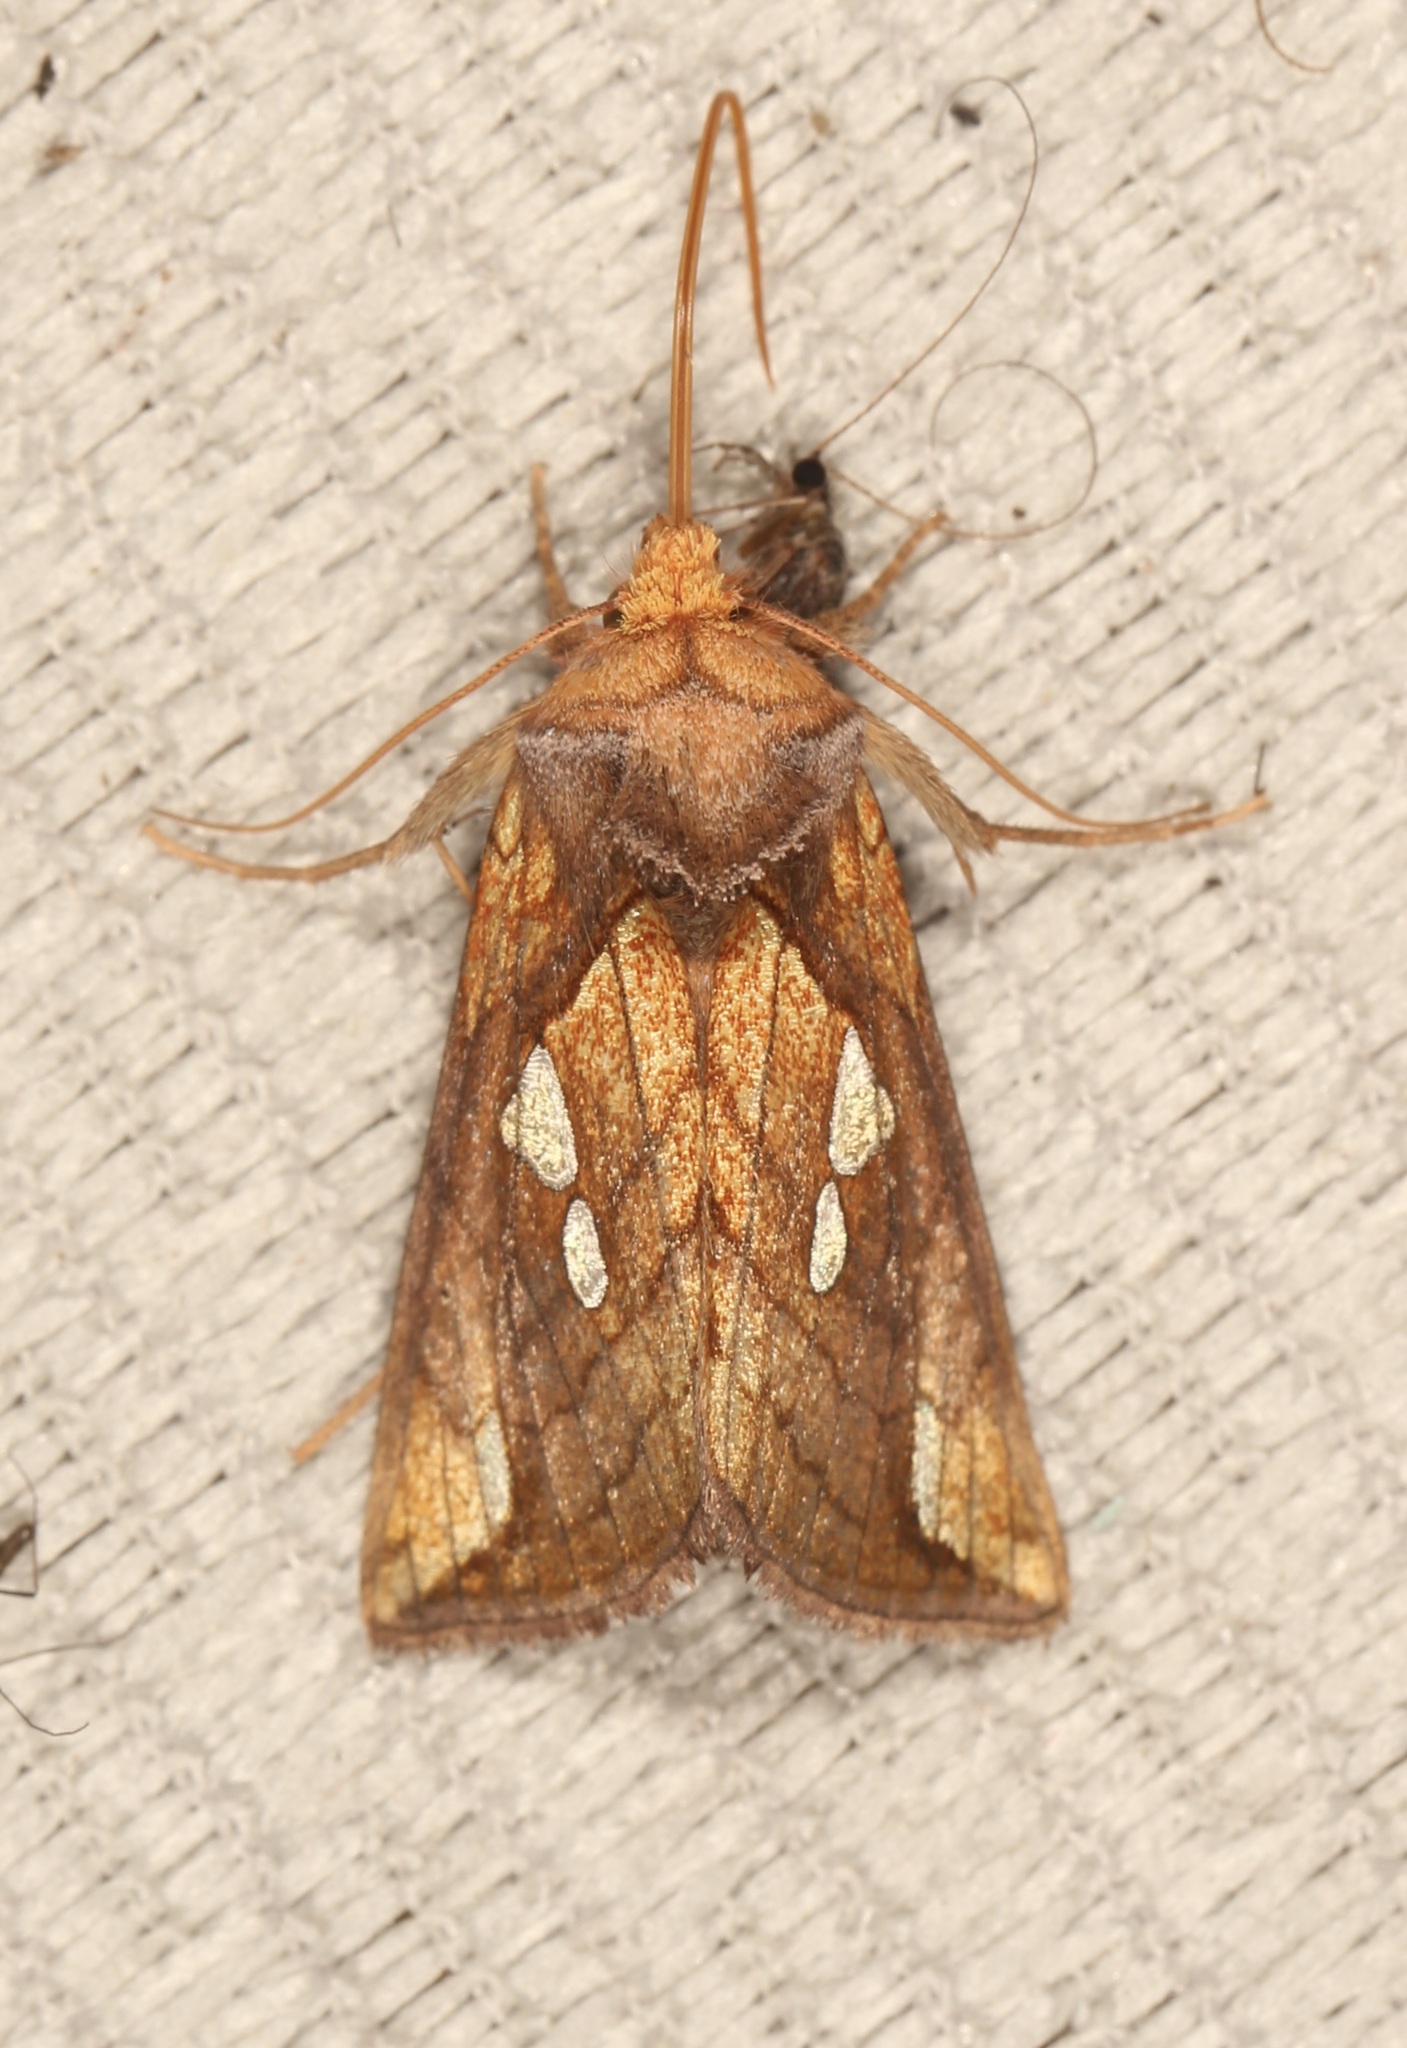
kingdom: Animalia
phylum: Arthropoda
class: Insecta
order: Lepidoptera
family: Noctuidae
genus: Plusia
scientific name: Plusia putnami
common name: Lempke's gold spot
